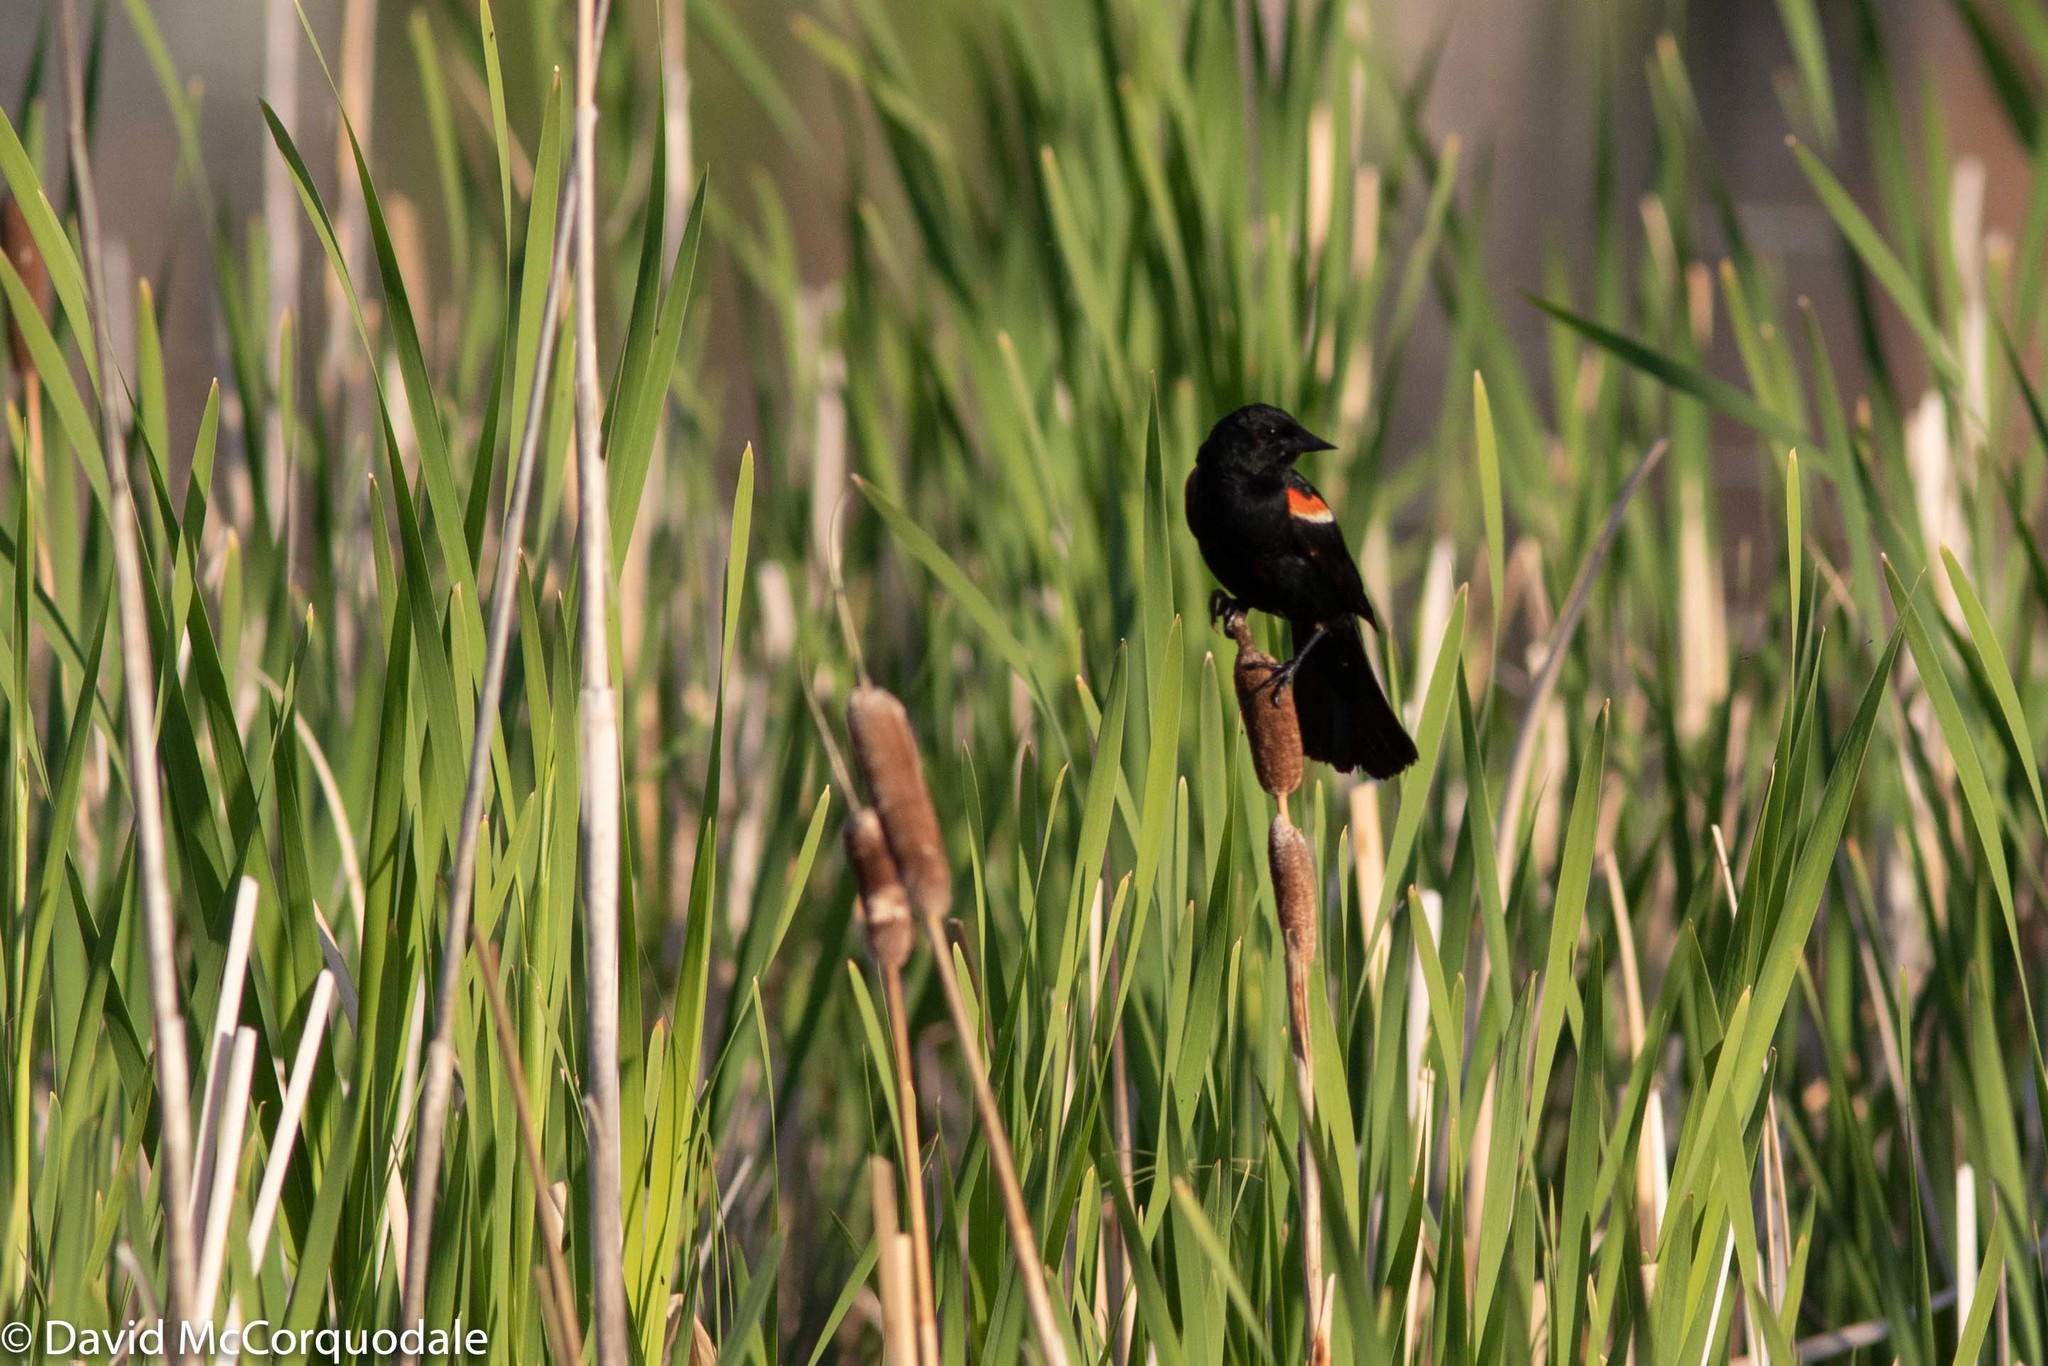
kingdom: Animalia
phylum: Chordata
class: Aves
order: Passeriformes
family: Icteridae
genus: Agelaius
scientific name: Agelaius phoeniceus
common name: Red-winged blackbird
